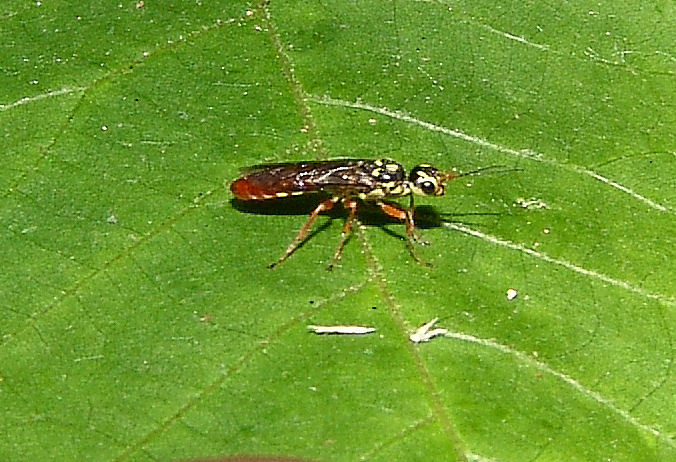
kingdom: Animalia
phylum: Arthropoda
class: Insecta
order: Hymenoptera
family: Xiphydriidae
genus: Xiphydria
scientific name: Xiphydria
